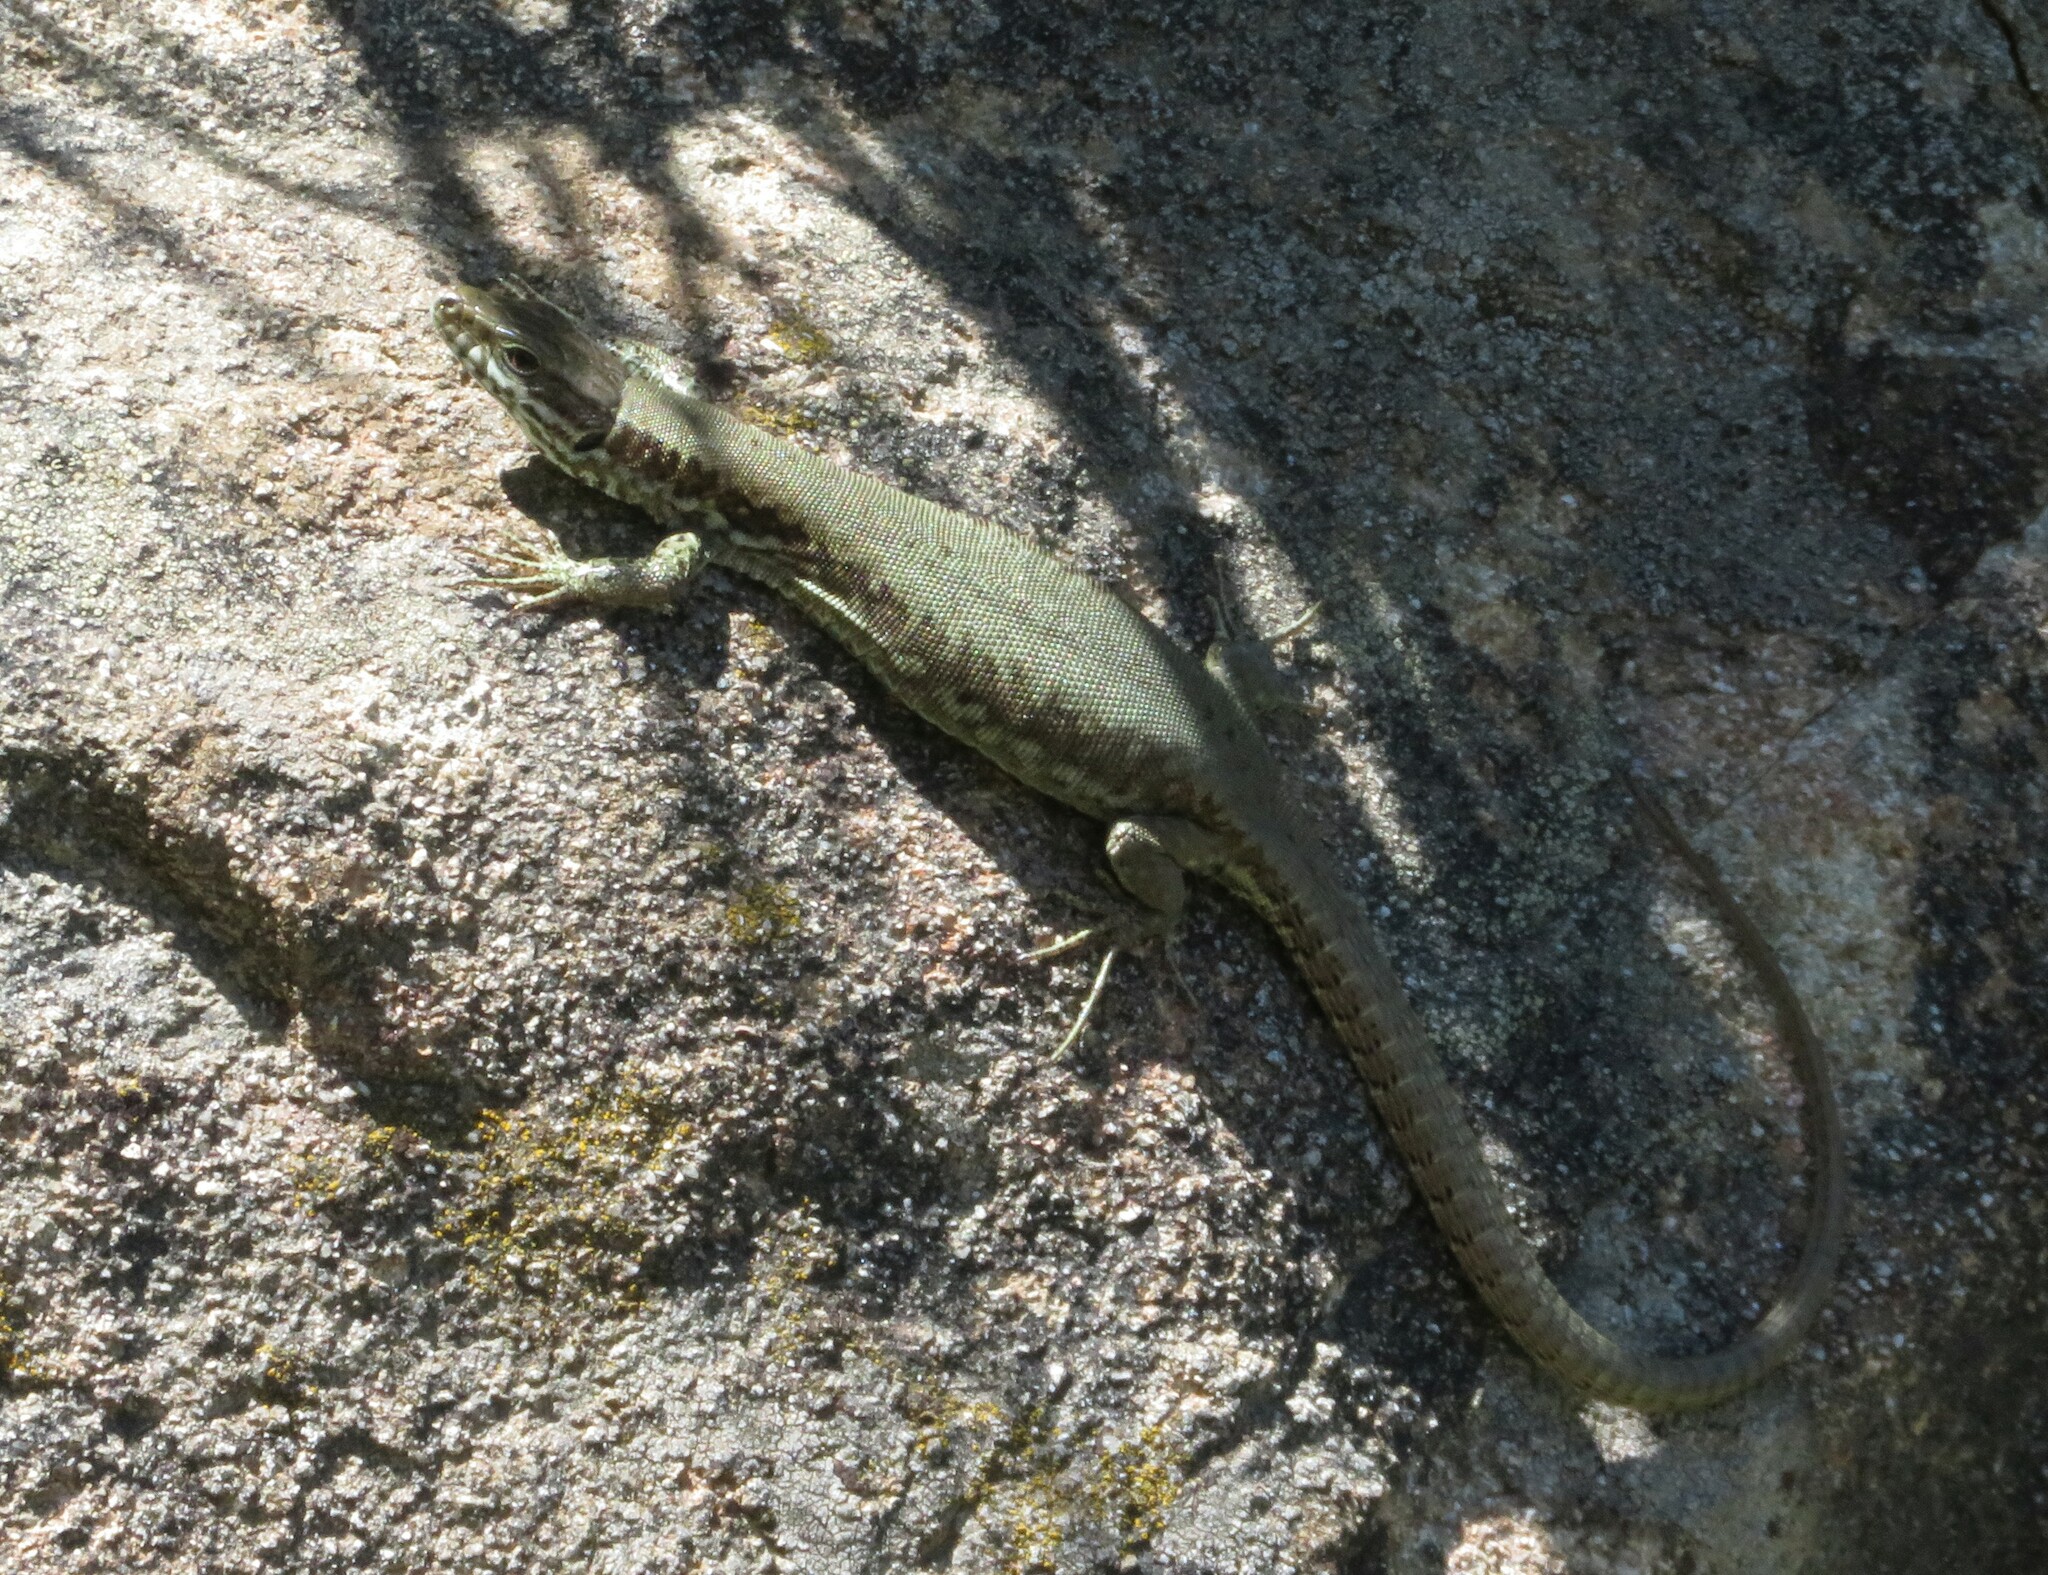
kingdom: Animalia
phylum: Chordata
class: Squamata
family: Lacertidae
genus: Podarcis
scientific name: Podarcis muralis
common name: Common wall lizard
